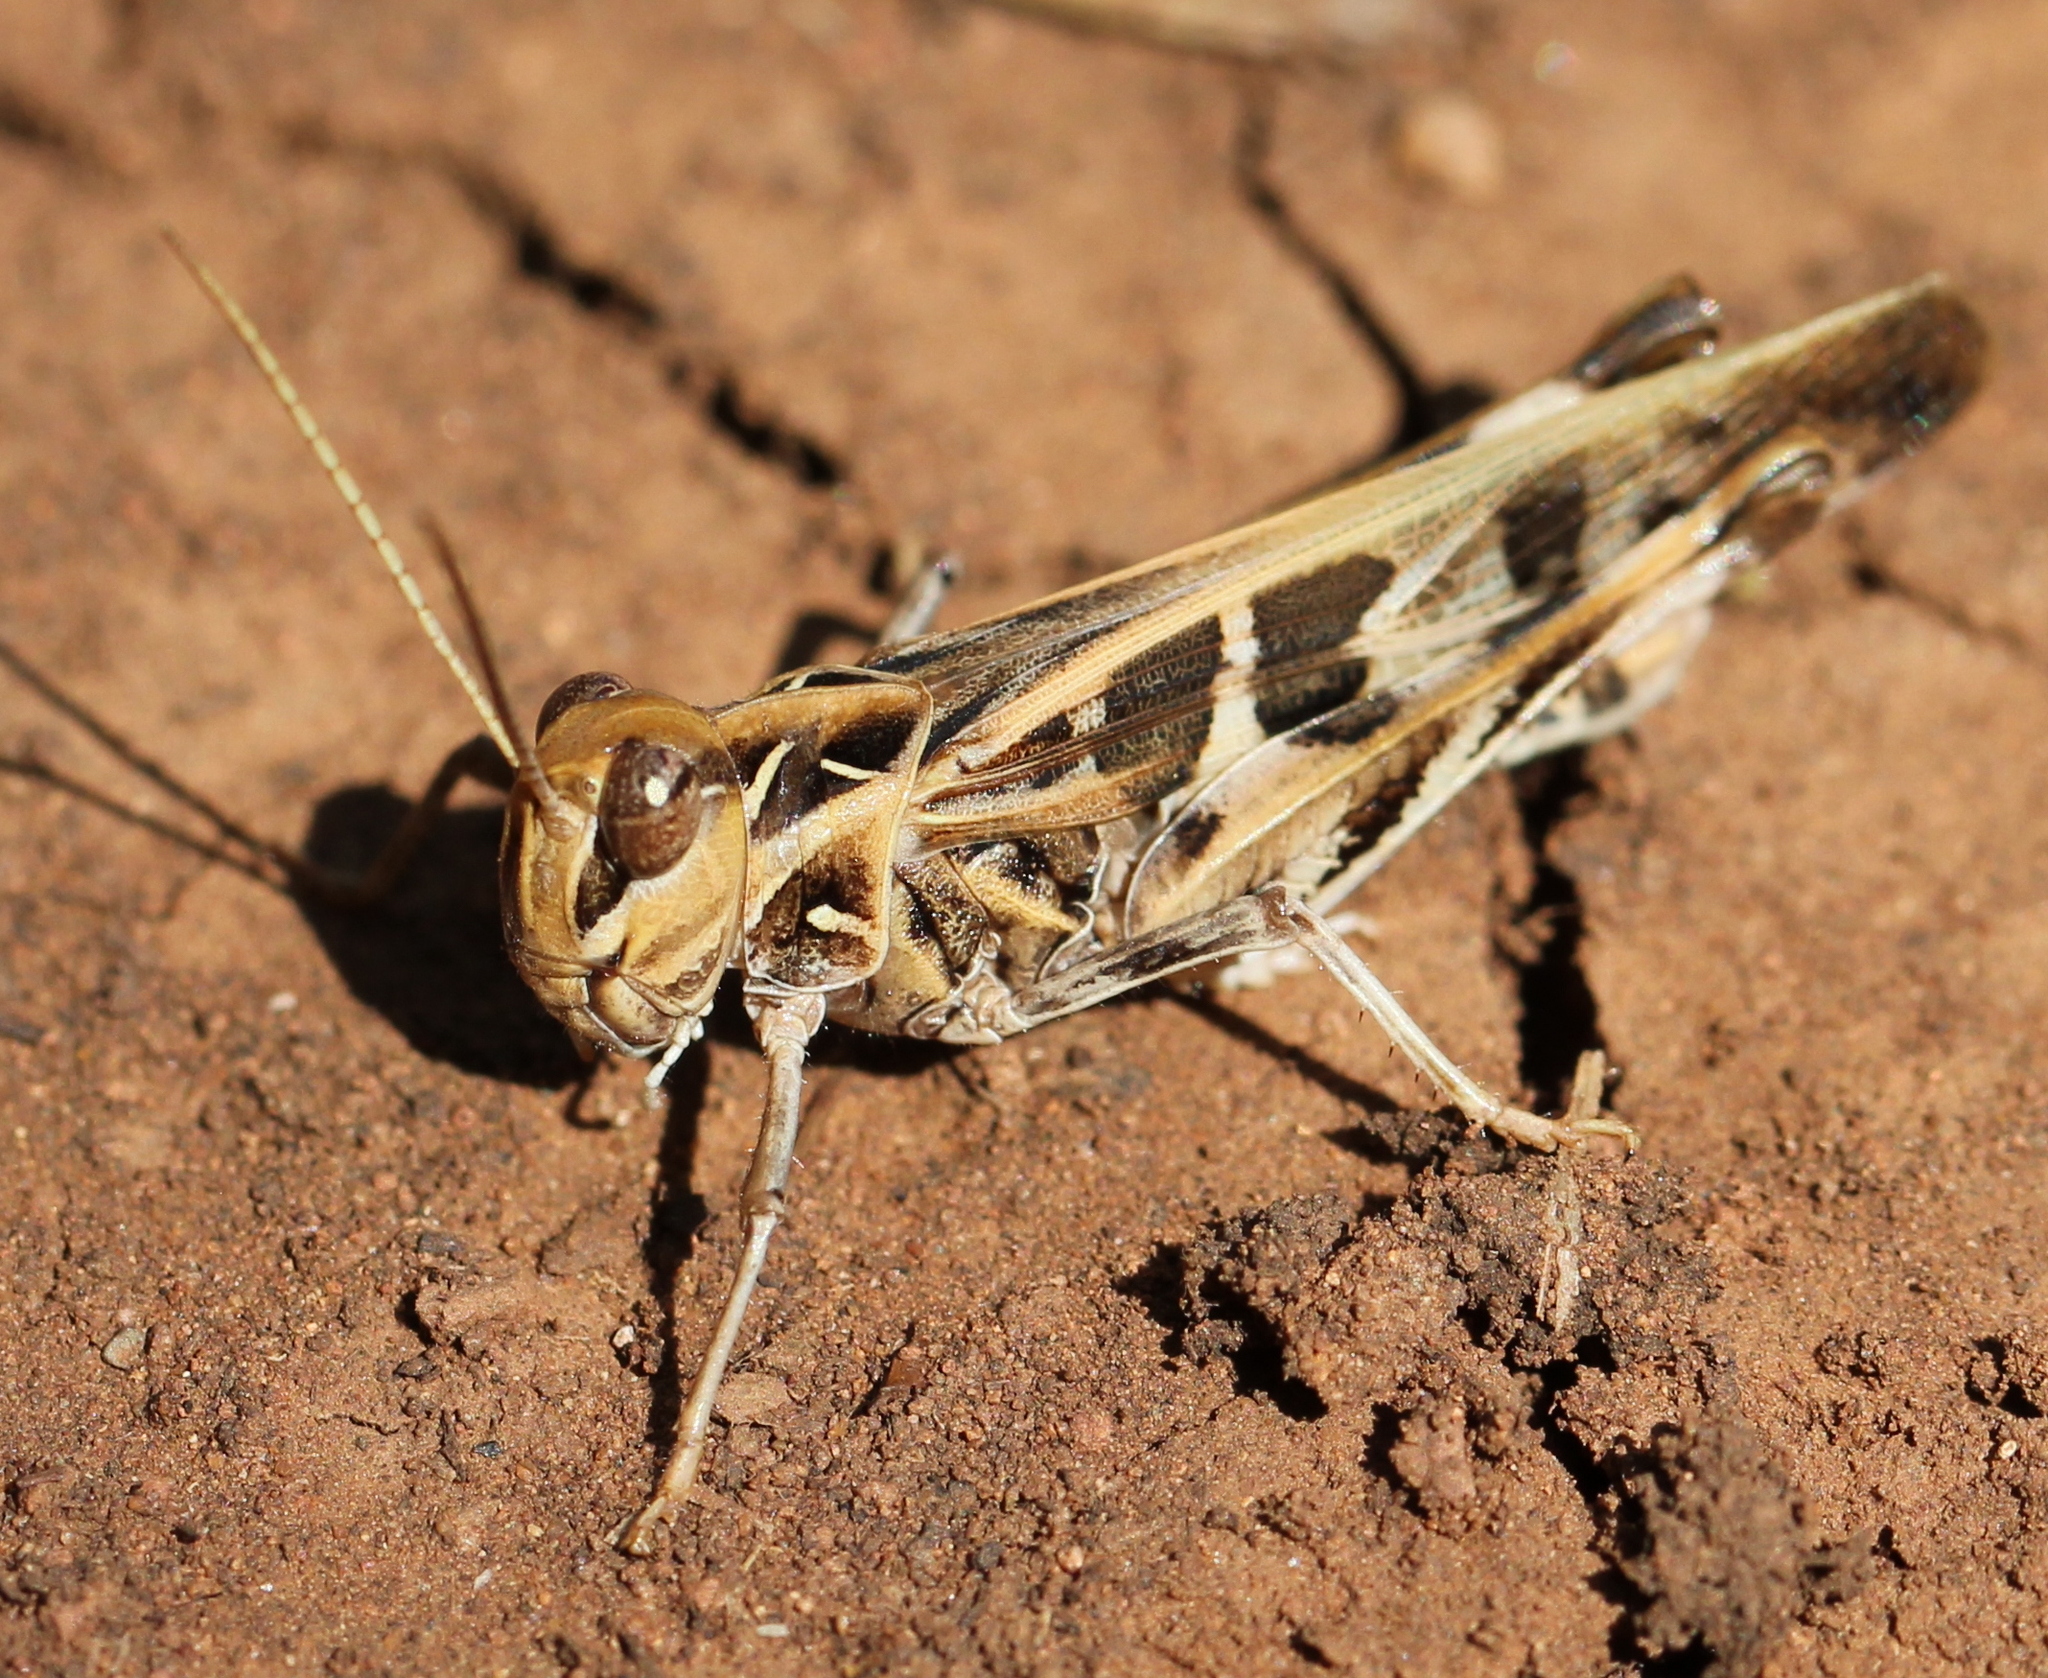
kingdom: Animalia
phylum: Arthropoda
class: Insecta
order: Orthoptera
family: Acrididae
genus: Oedaleus
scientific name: Oedaleus decorus
